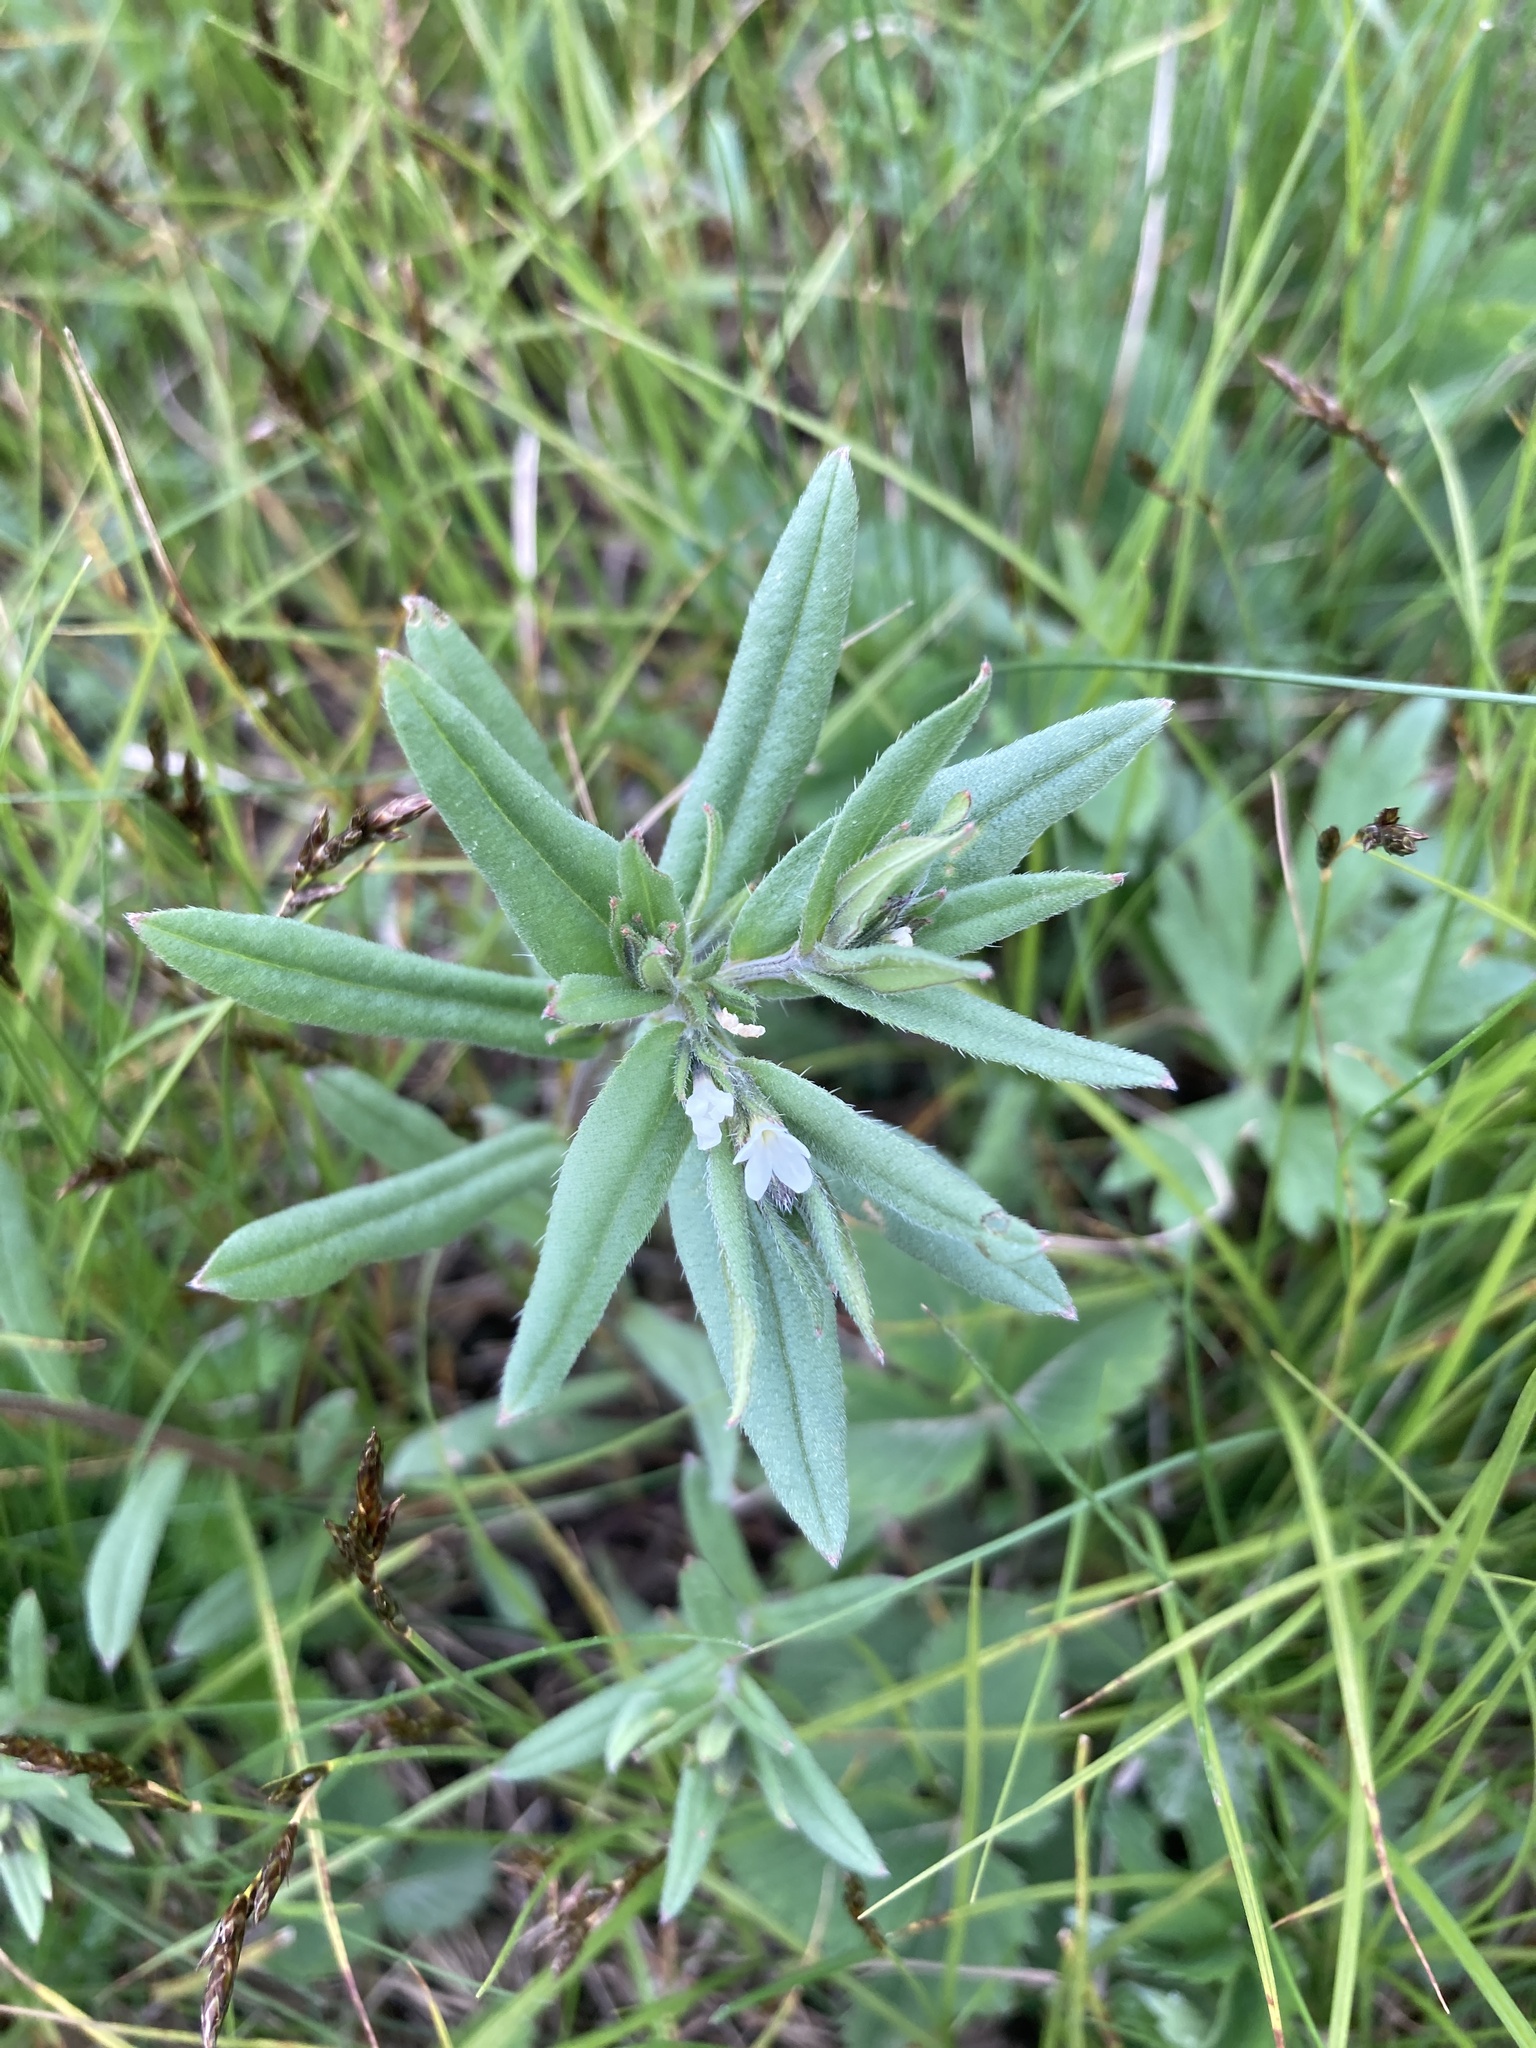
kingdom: Plantae
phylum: Tracheophyta
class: Magnoliopsida
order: Boraginales
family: Boraginaceae
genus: Buglossoides
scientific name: Buglossoides arvensis
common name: Corn gromwell
